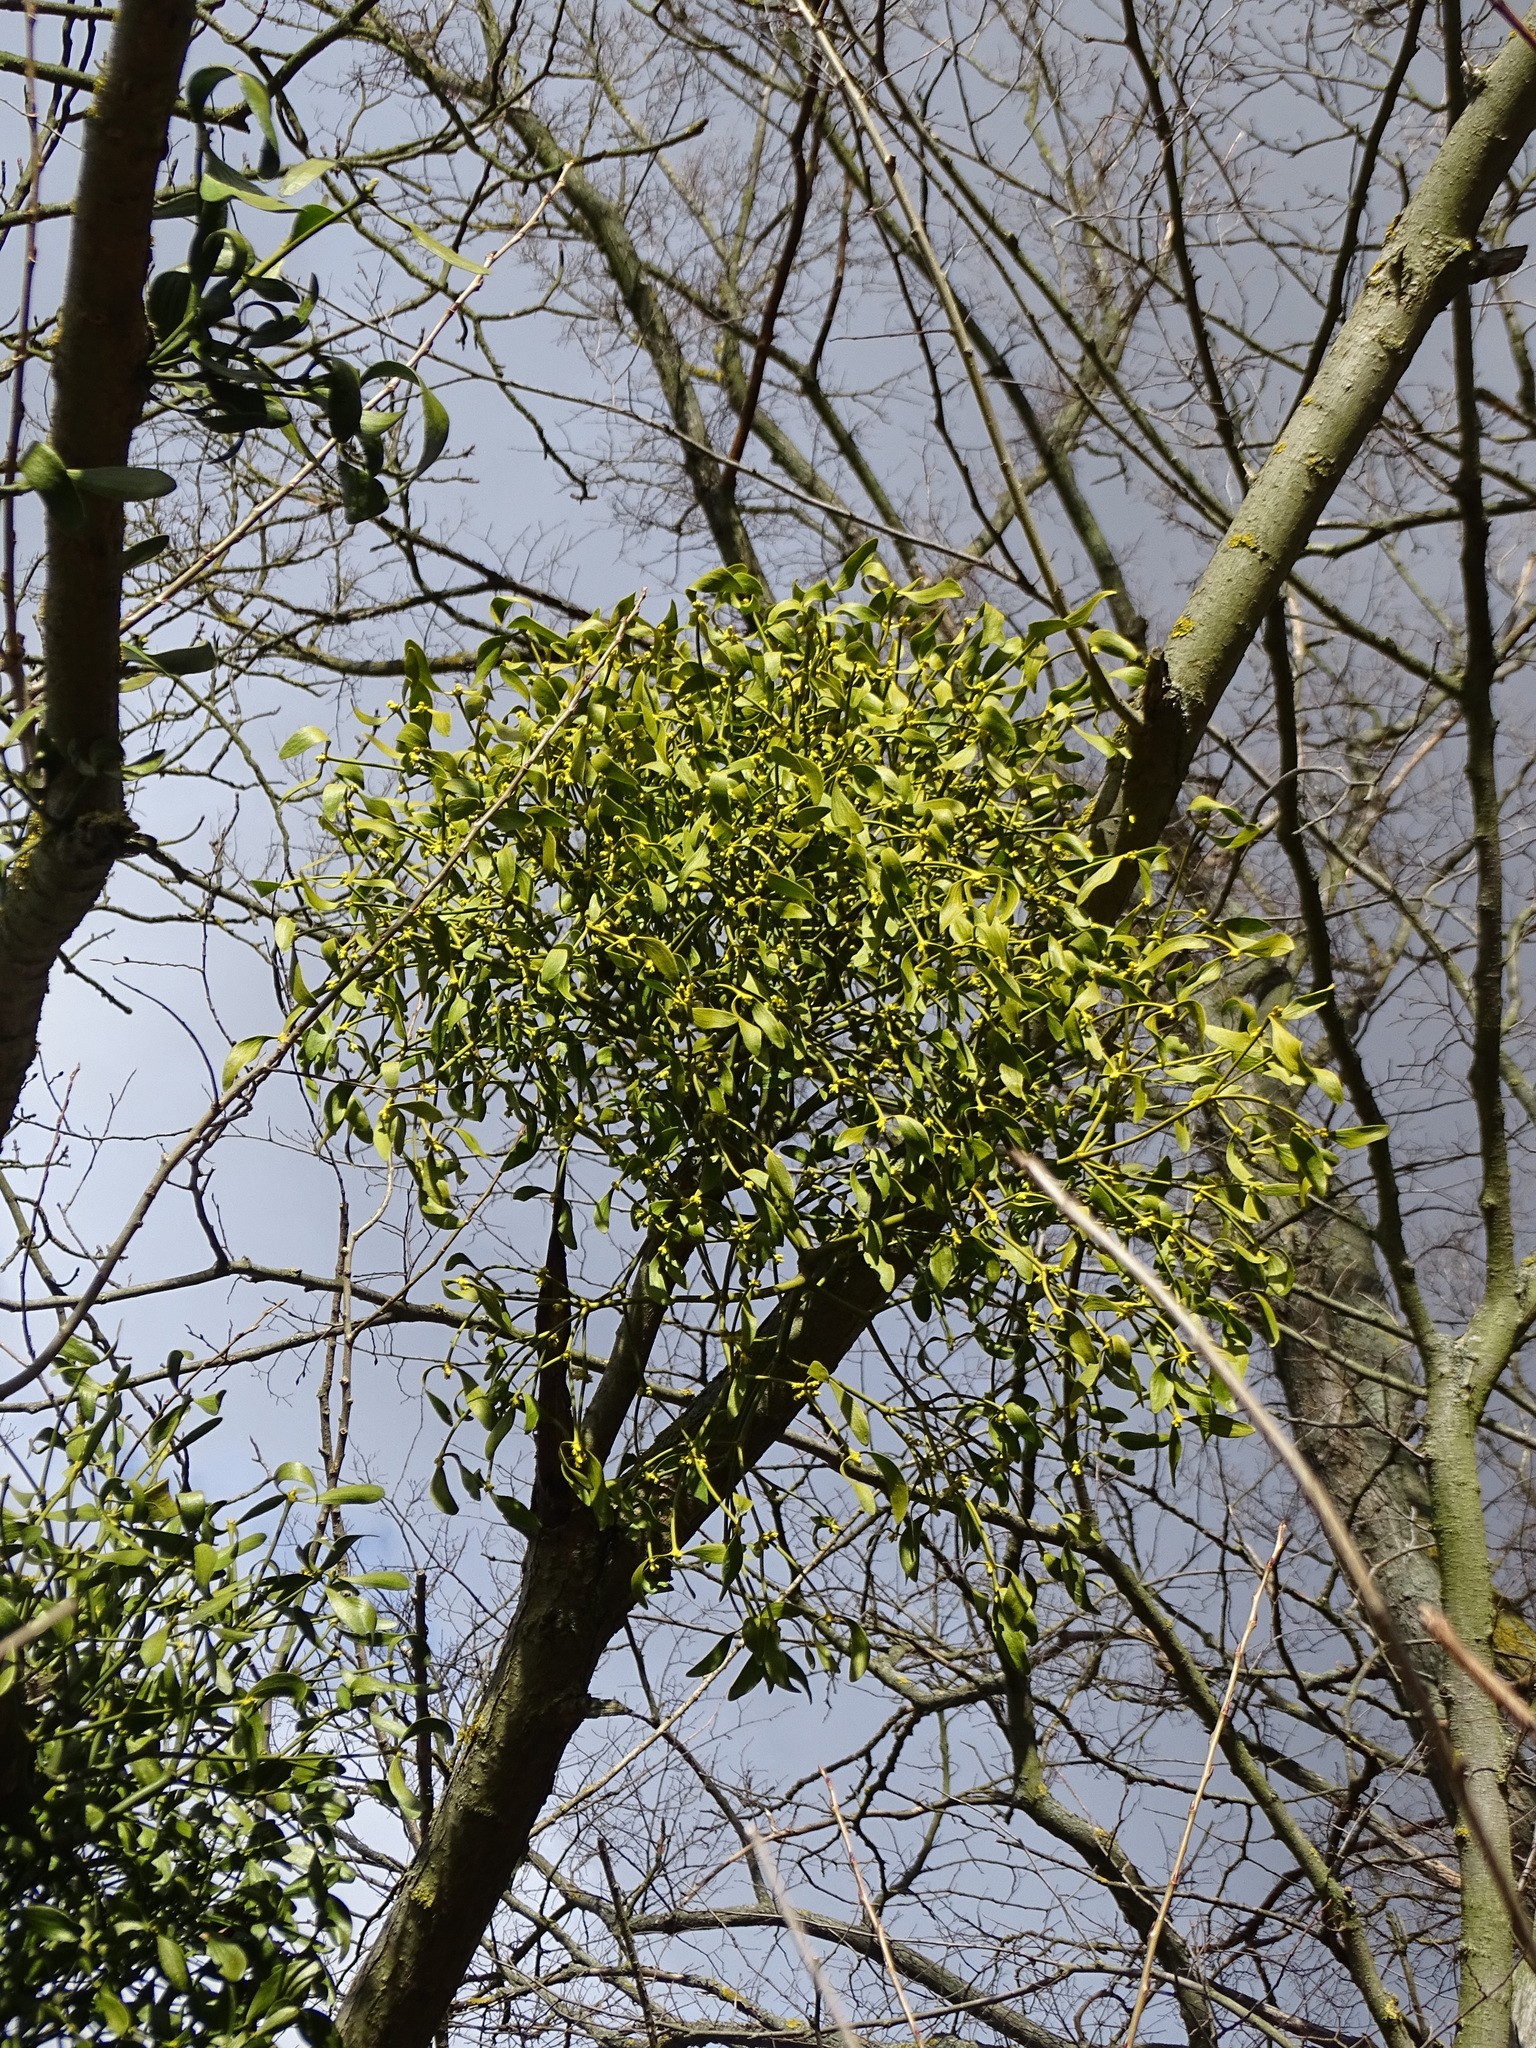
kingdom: Plantae
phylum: Tracheophyta
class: Magnoliopsida
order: Santalales
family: Viscaceae
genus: Viscum
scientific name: Viscum album
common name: Mistletoe
